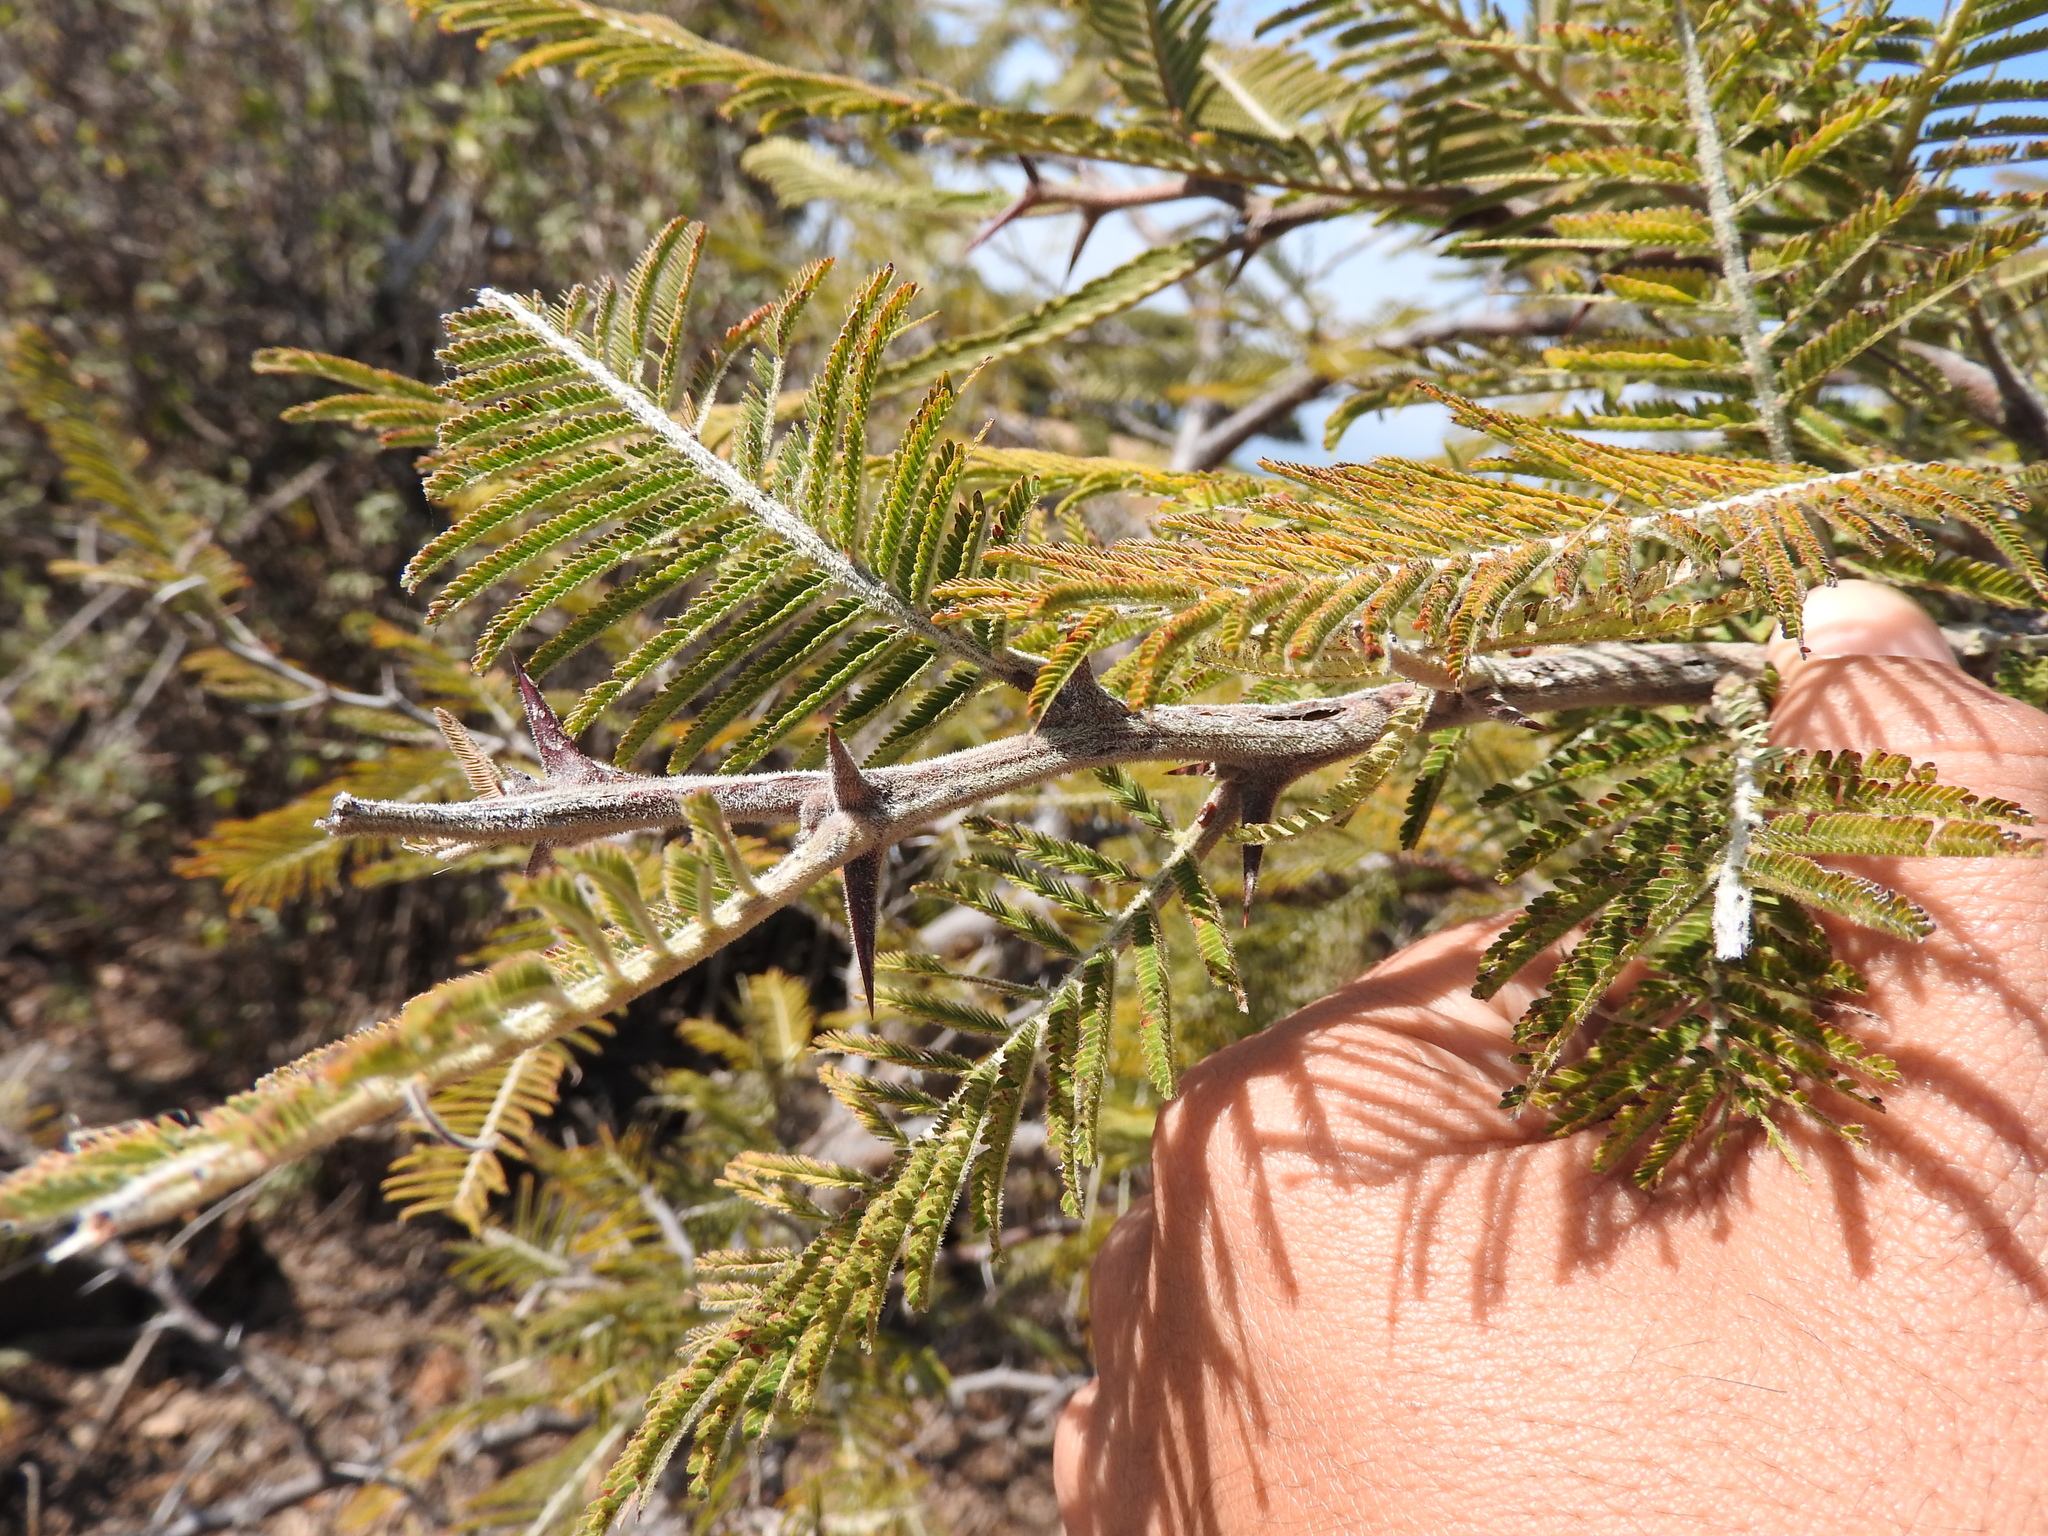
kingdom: Plantae
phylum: Tracheophyta
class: Magnoliopsida
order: Fabales
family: Fabaceae
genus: Vachellia
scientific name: Vachellia pennatula
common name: Fern-leaf acacia
